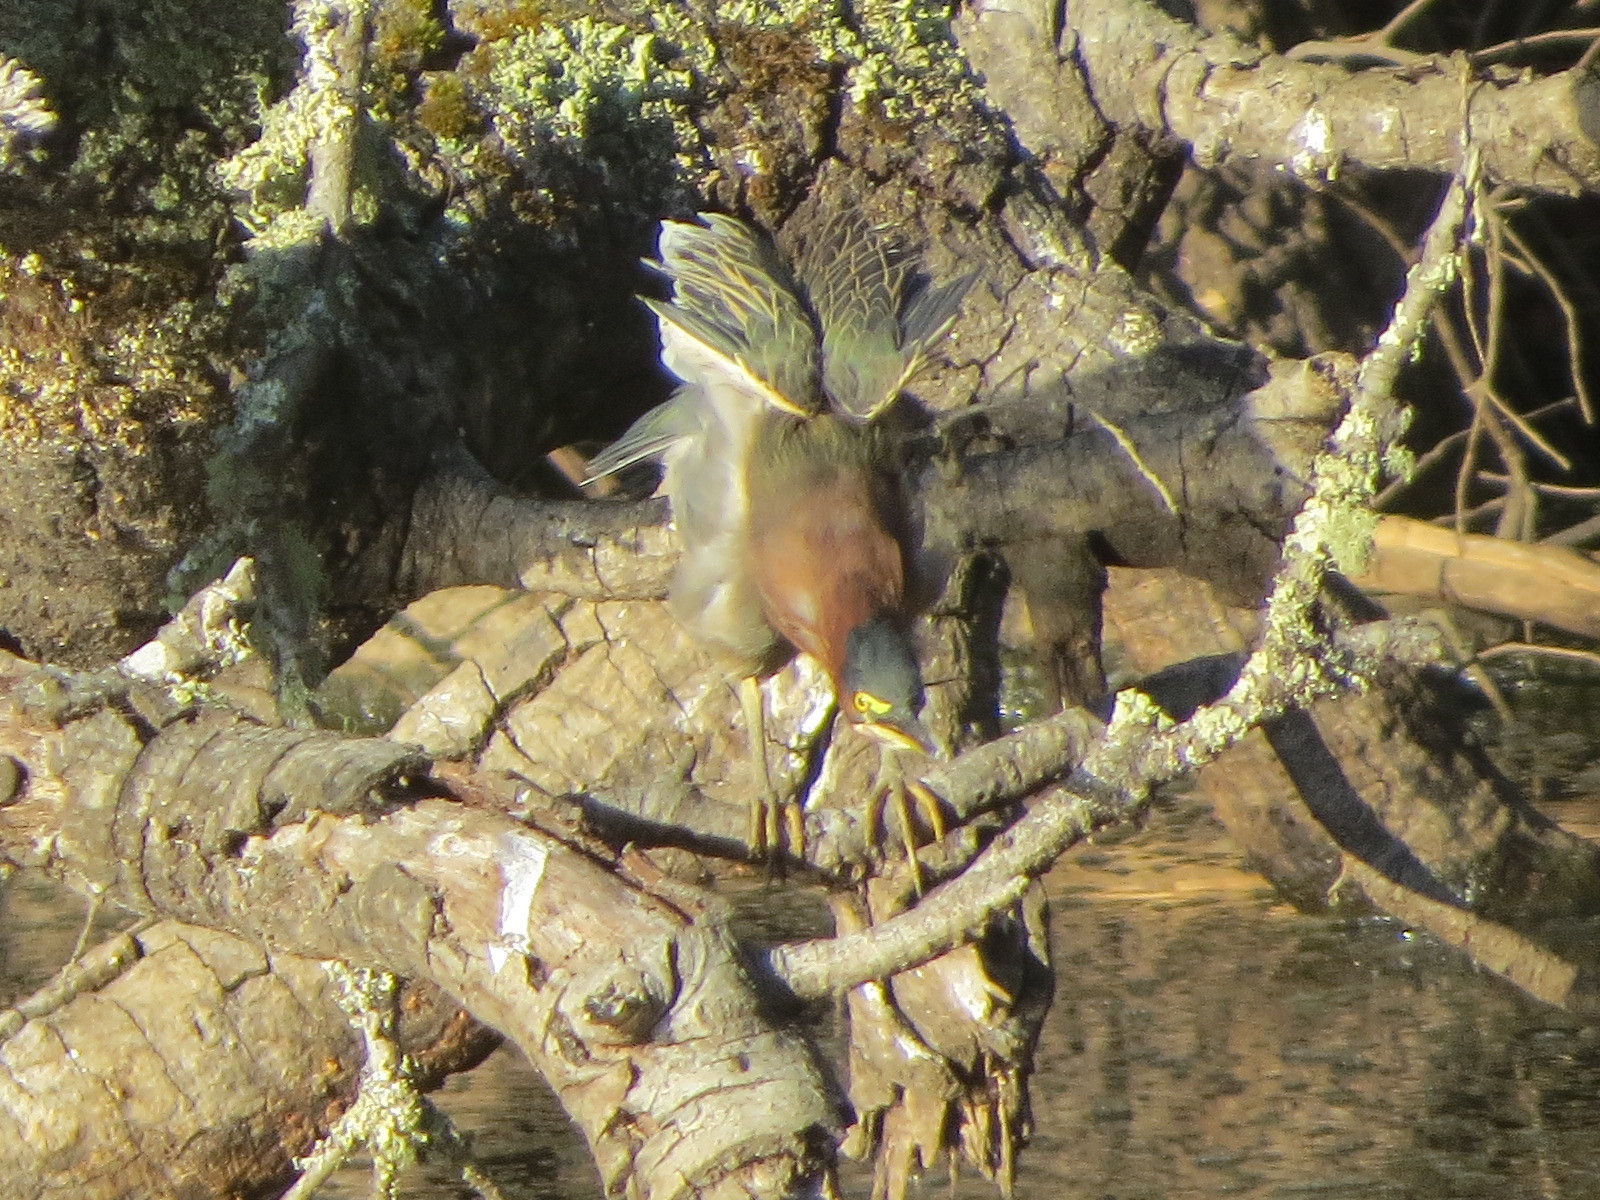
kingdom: Animalia
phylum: Chordata
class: Aves
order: Pelecaniformes
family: Ardeidae
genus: Butorides
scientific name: Butorides virescens
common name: Green heron
